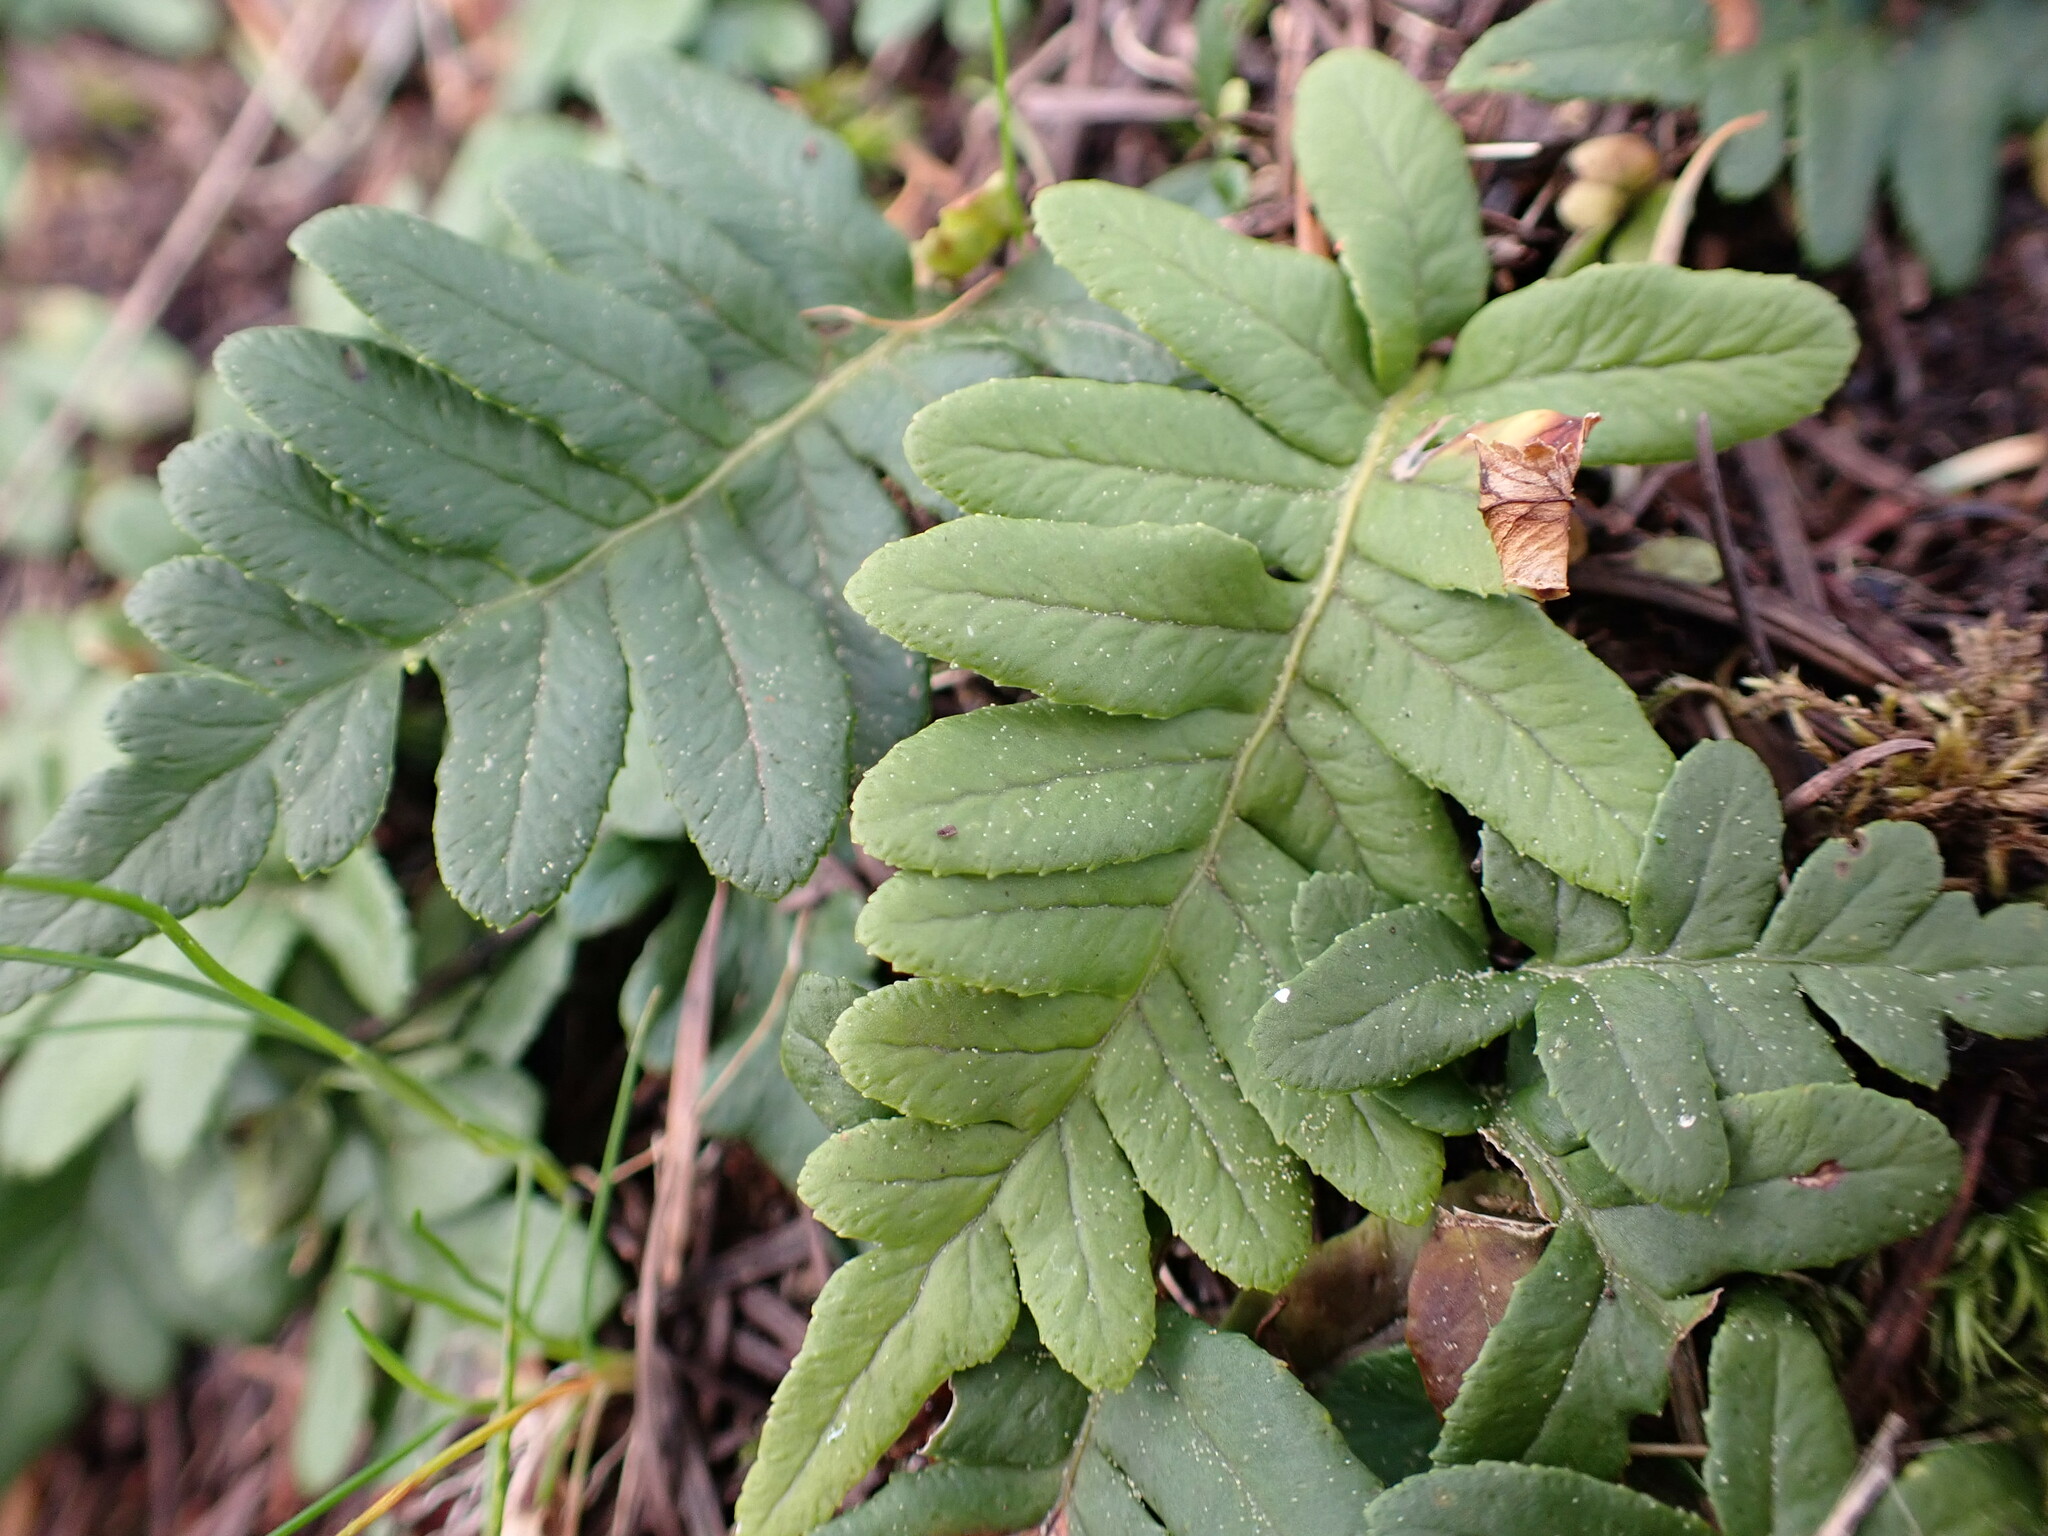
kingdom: Plantae
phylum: Tracheophyta
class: Polypodiopsida
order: Polypodiales
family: Polypodiaceae
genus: Polypodium
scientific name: Polypodium glycyrrhiza
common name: Licorice fern
